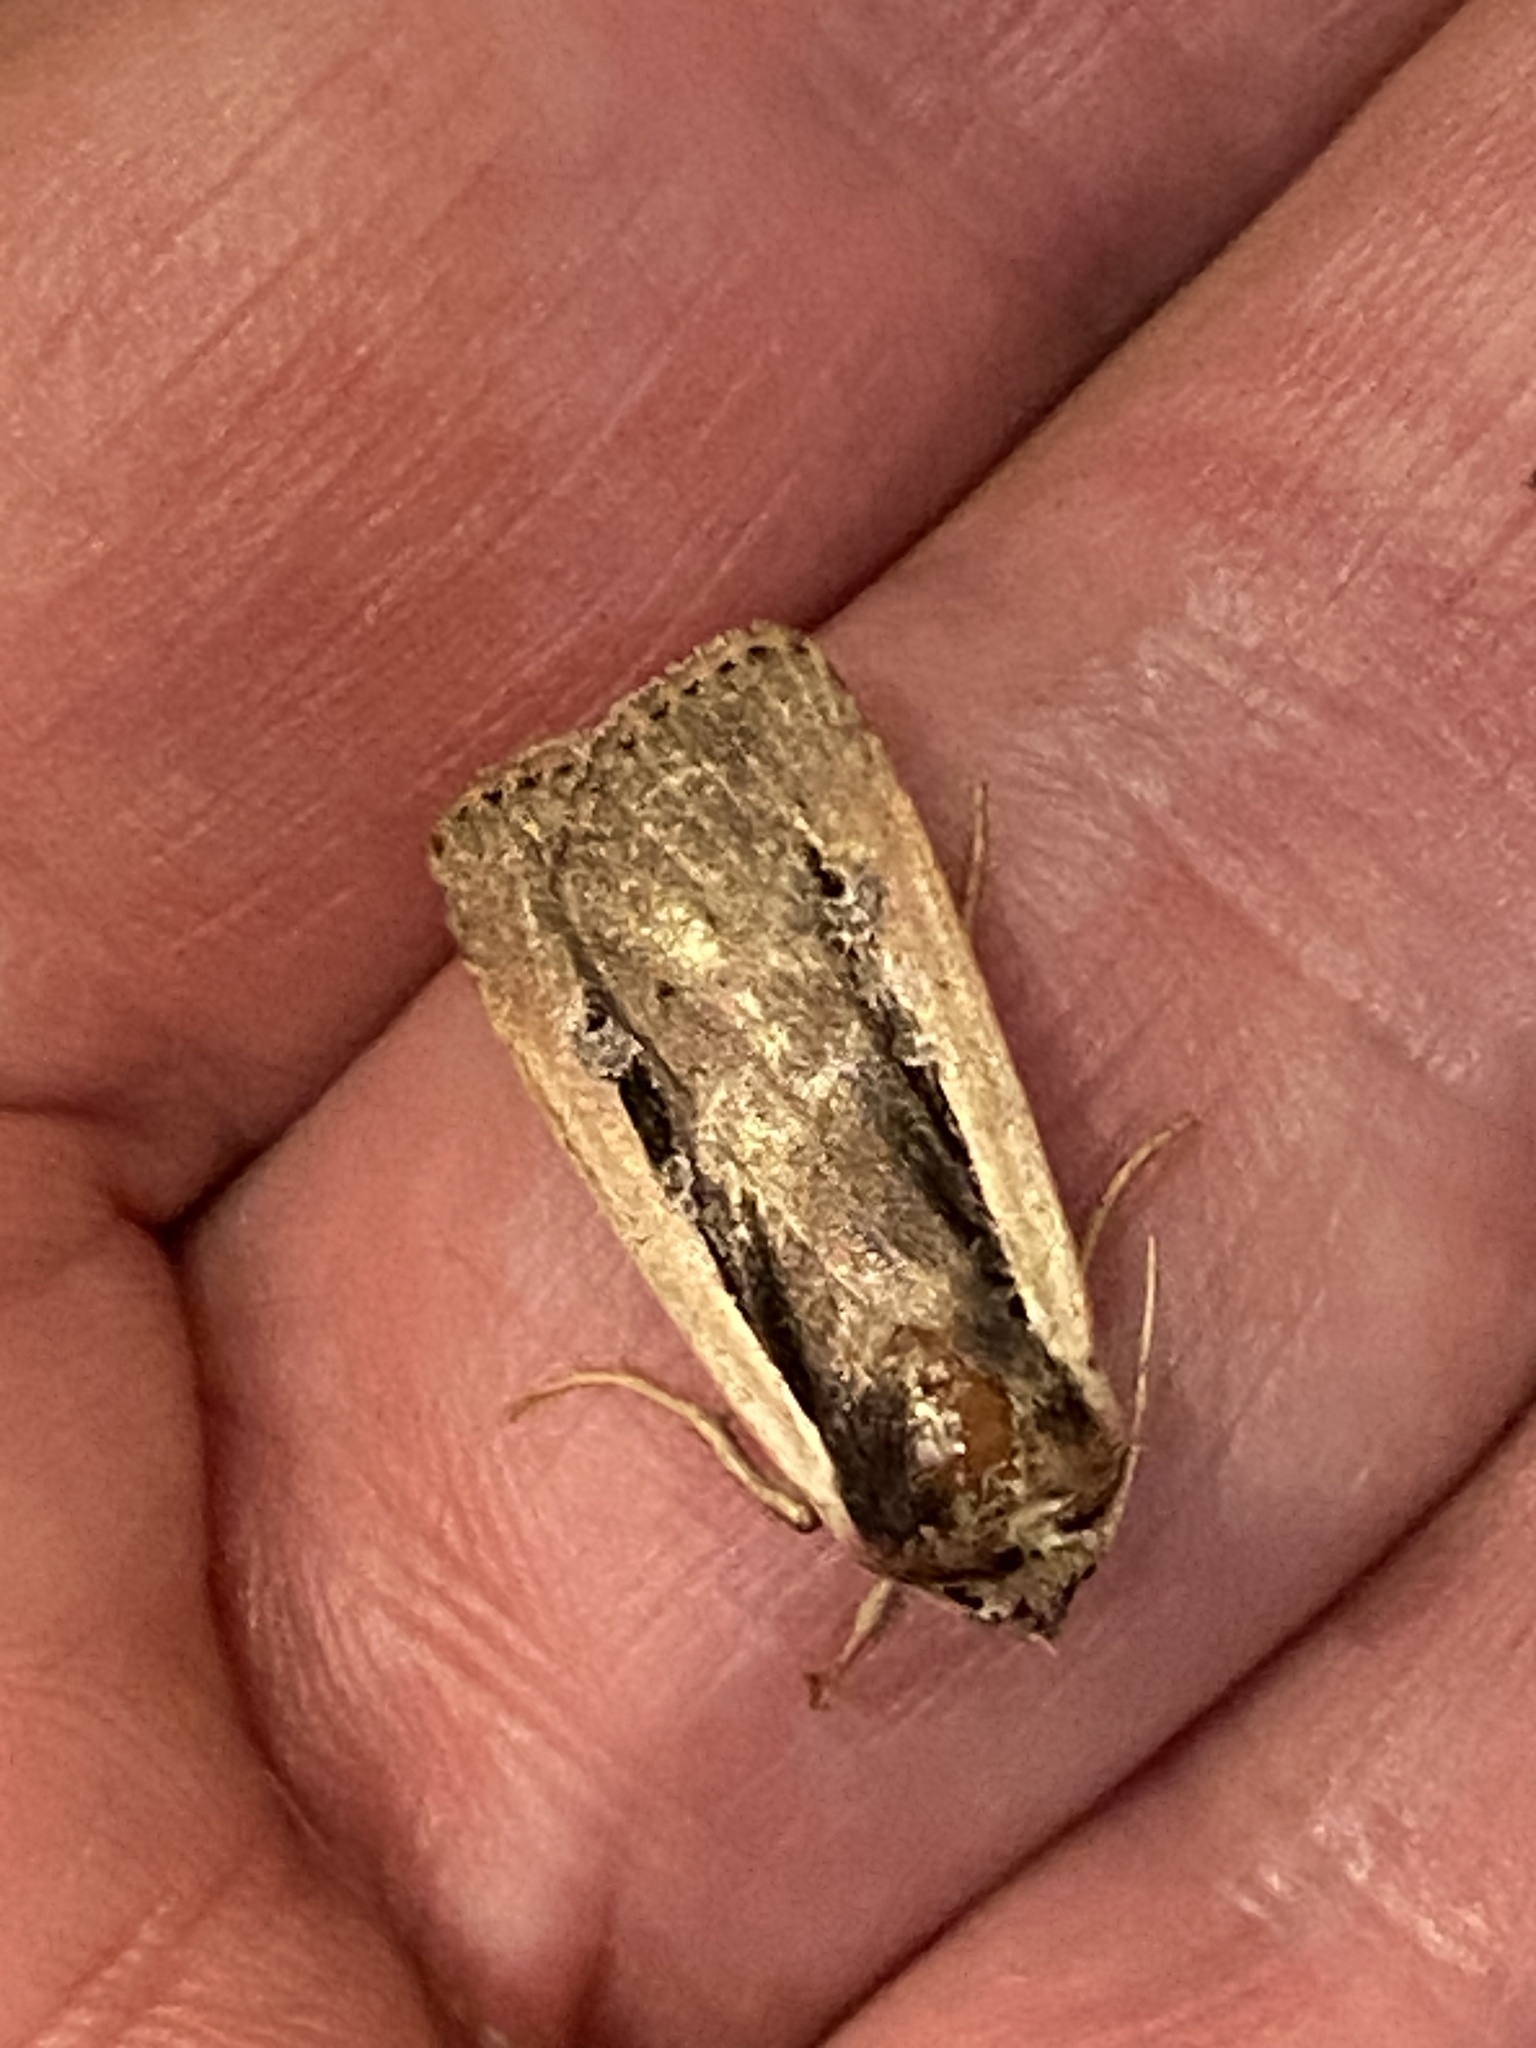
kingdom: Animalia
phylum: Arthropoda
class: Insecta
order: Lepidoptera
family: Noctuidae
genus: Ochropleura
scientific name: Ochropleura leucogaster
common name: Radford's flame shoulder
